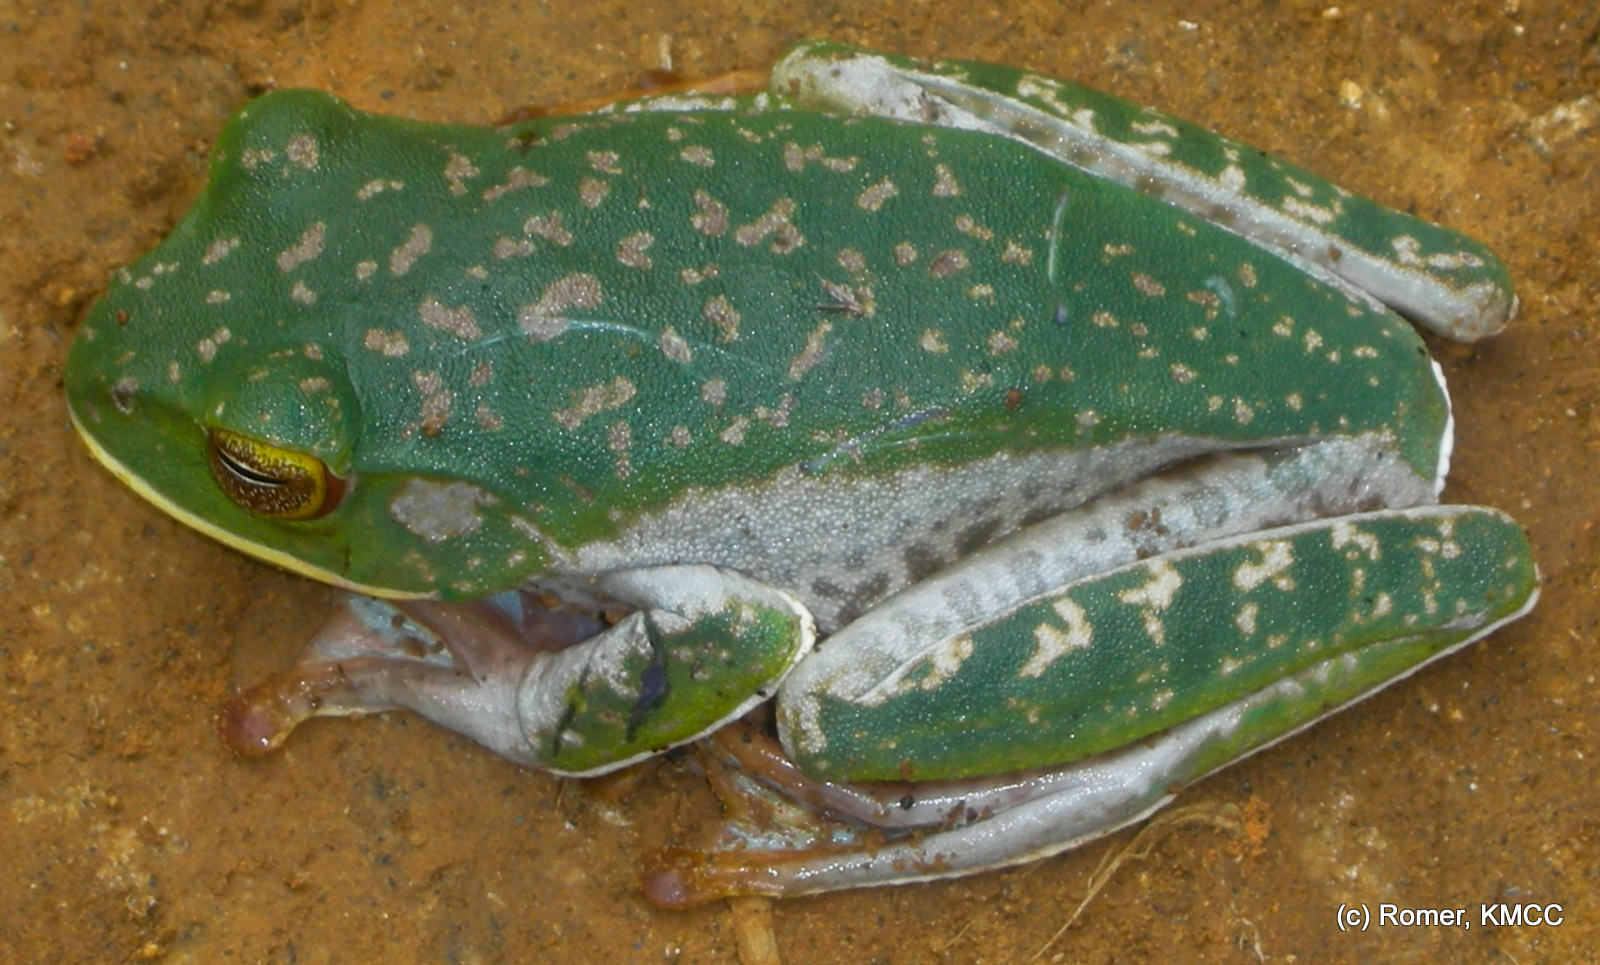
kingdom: Animalia
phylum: Chordata
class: Amphibia
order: Anura
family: Mantellidae
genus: Boophis
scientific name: Boophis albilabris
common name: White-lipped bright-eyed frog
